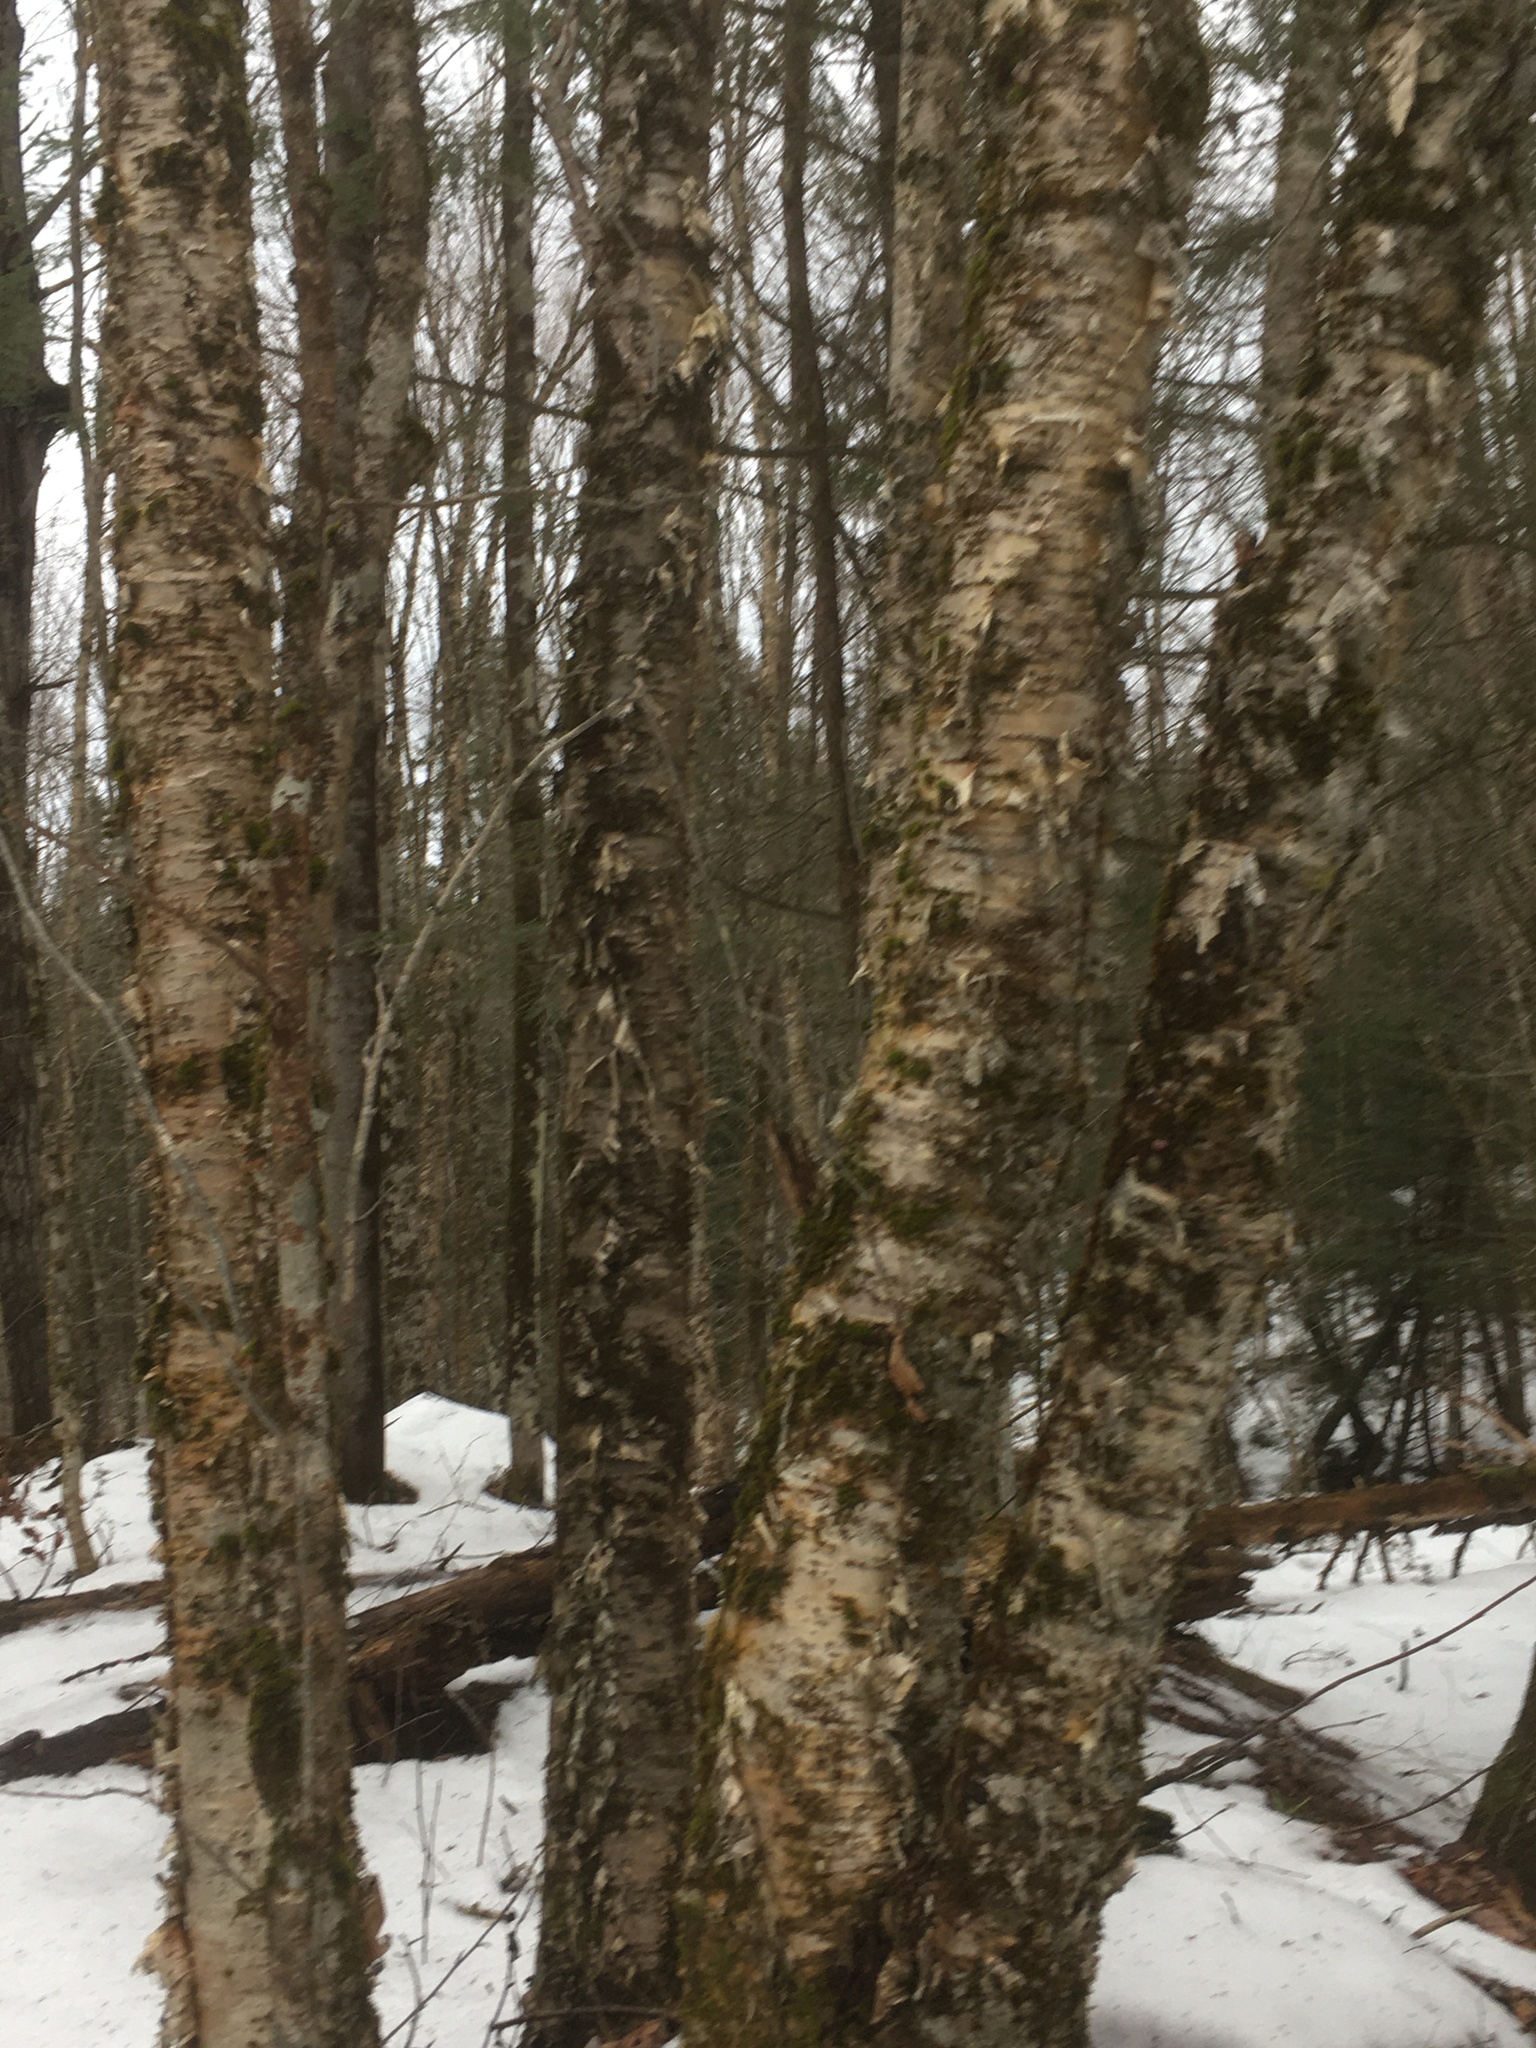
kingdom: Plantae
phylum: Tracheophyta
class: Magnoliopsida
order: Fagales
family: Betulaceae
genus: Betula
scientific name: Betula alleghaniensis
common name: Yellow birch
